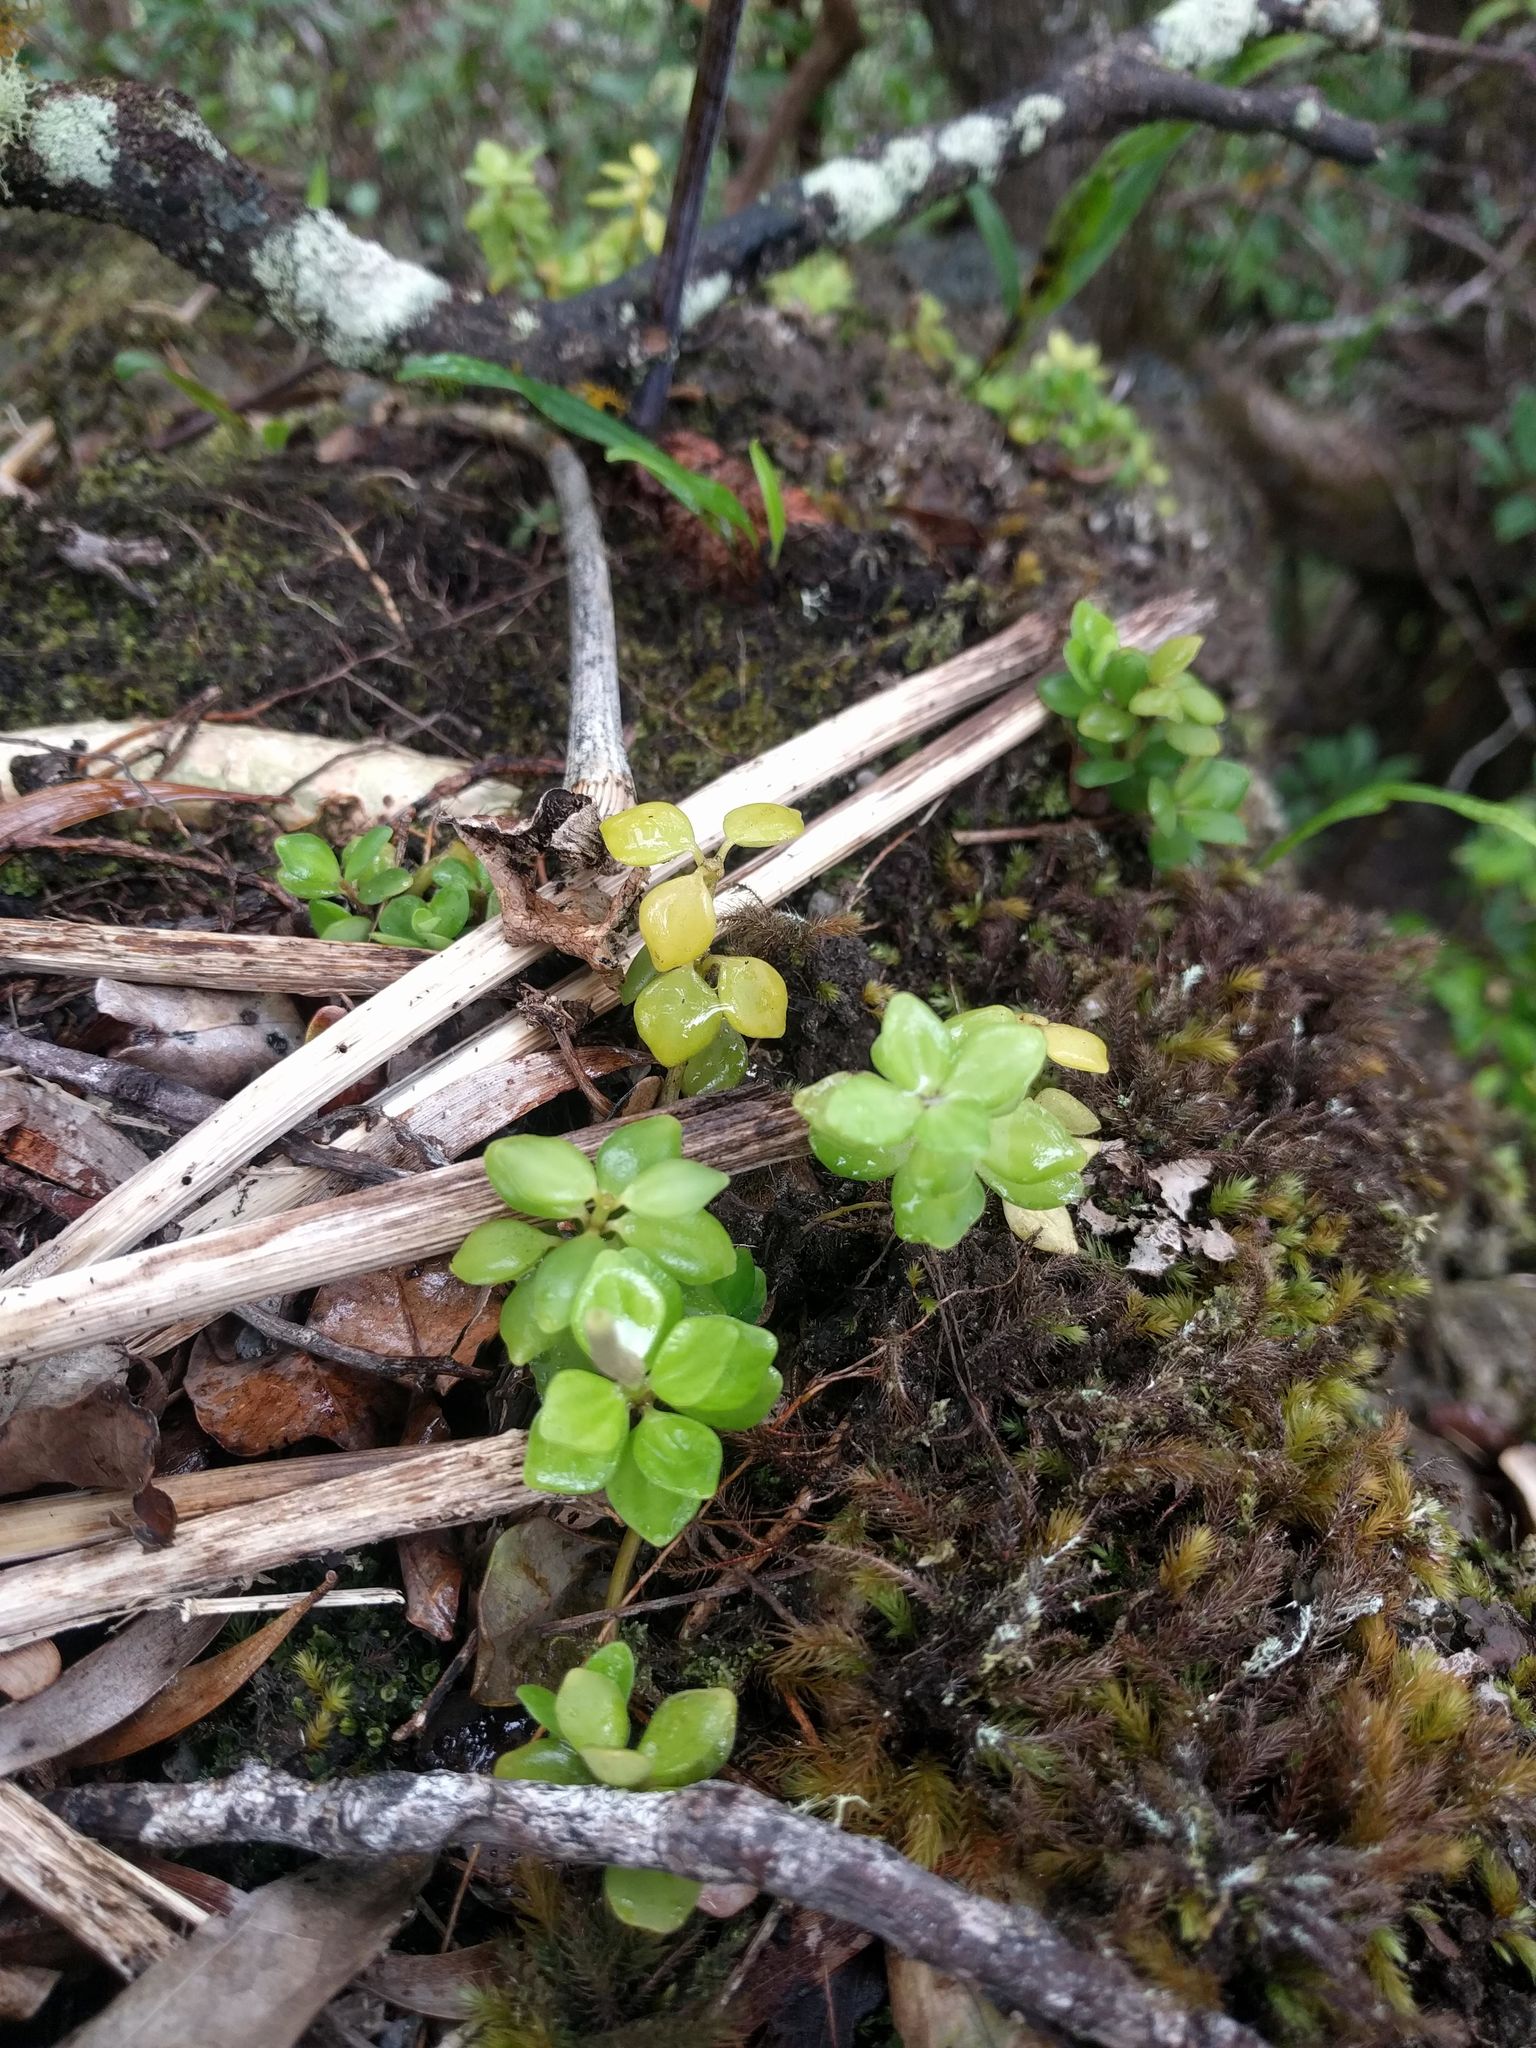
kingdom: Plantae
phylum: Tracheophyta
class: Magnoliopsida
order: Piperales
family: Piperaceae
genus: Peperomia
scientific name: Peperomia tetraphylla
